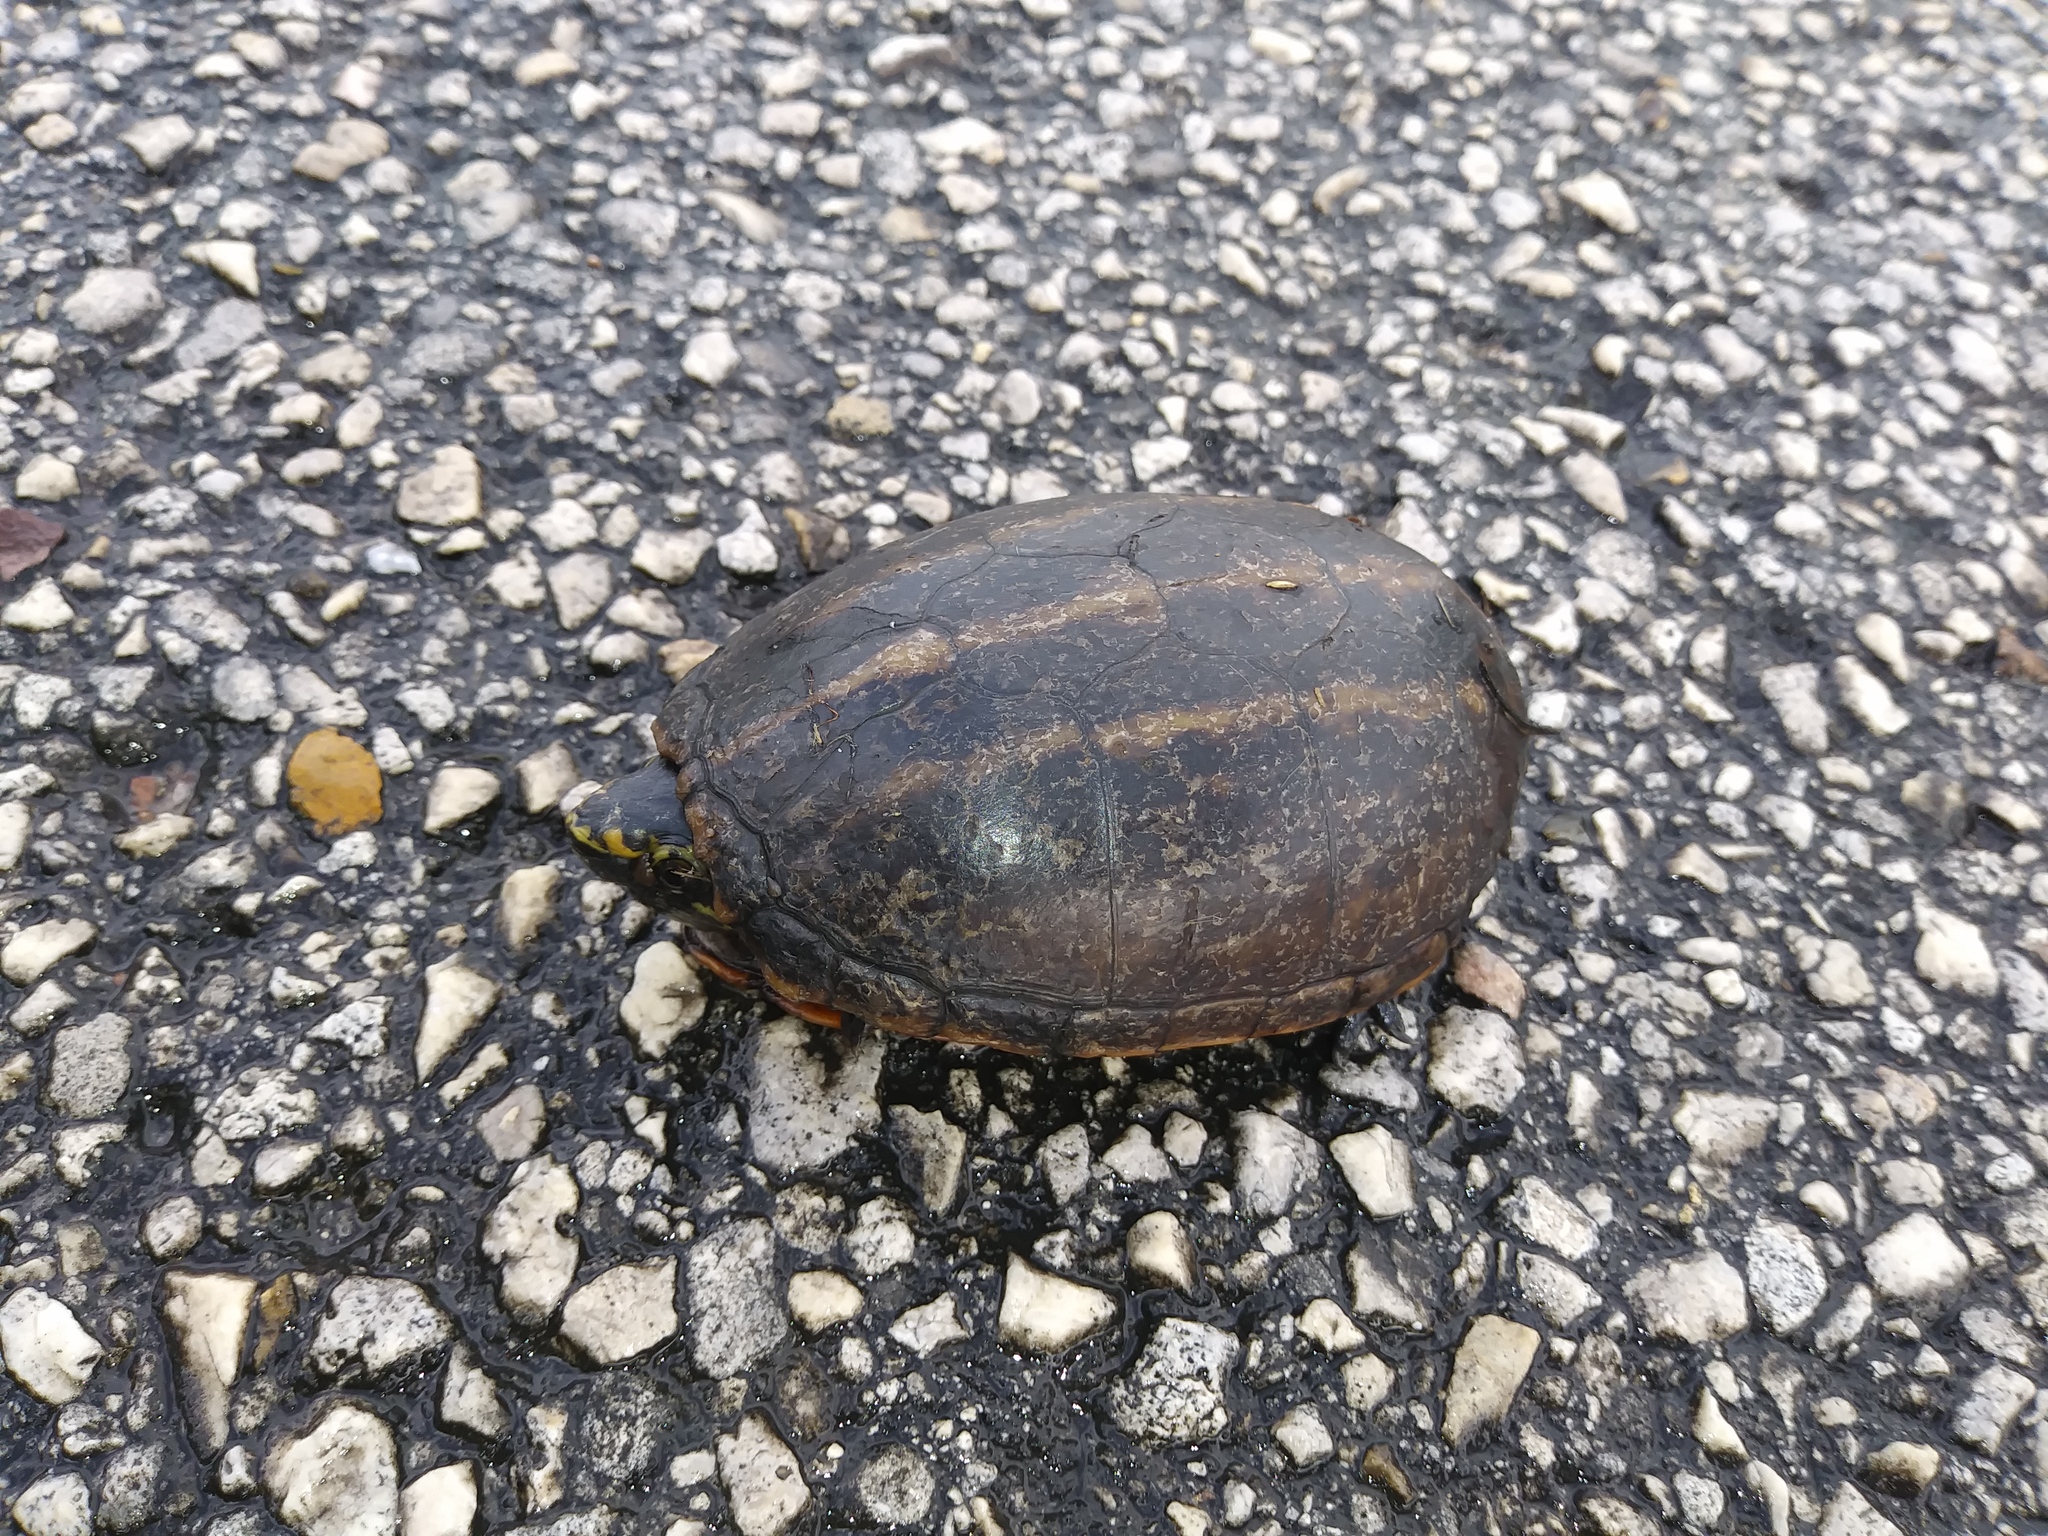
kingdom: Animalia
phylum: Chordata
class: Testudines
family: Kinosternidae
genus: Kinosternon
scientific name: Kinosternon baurii
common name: Striped mud turtle
